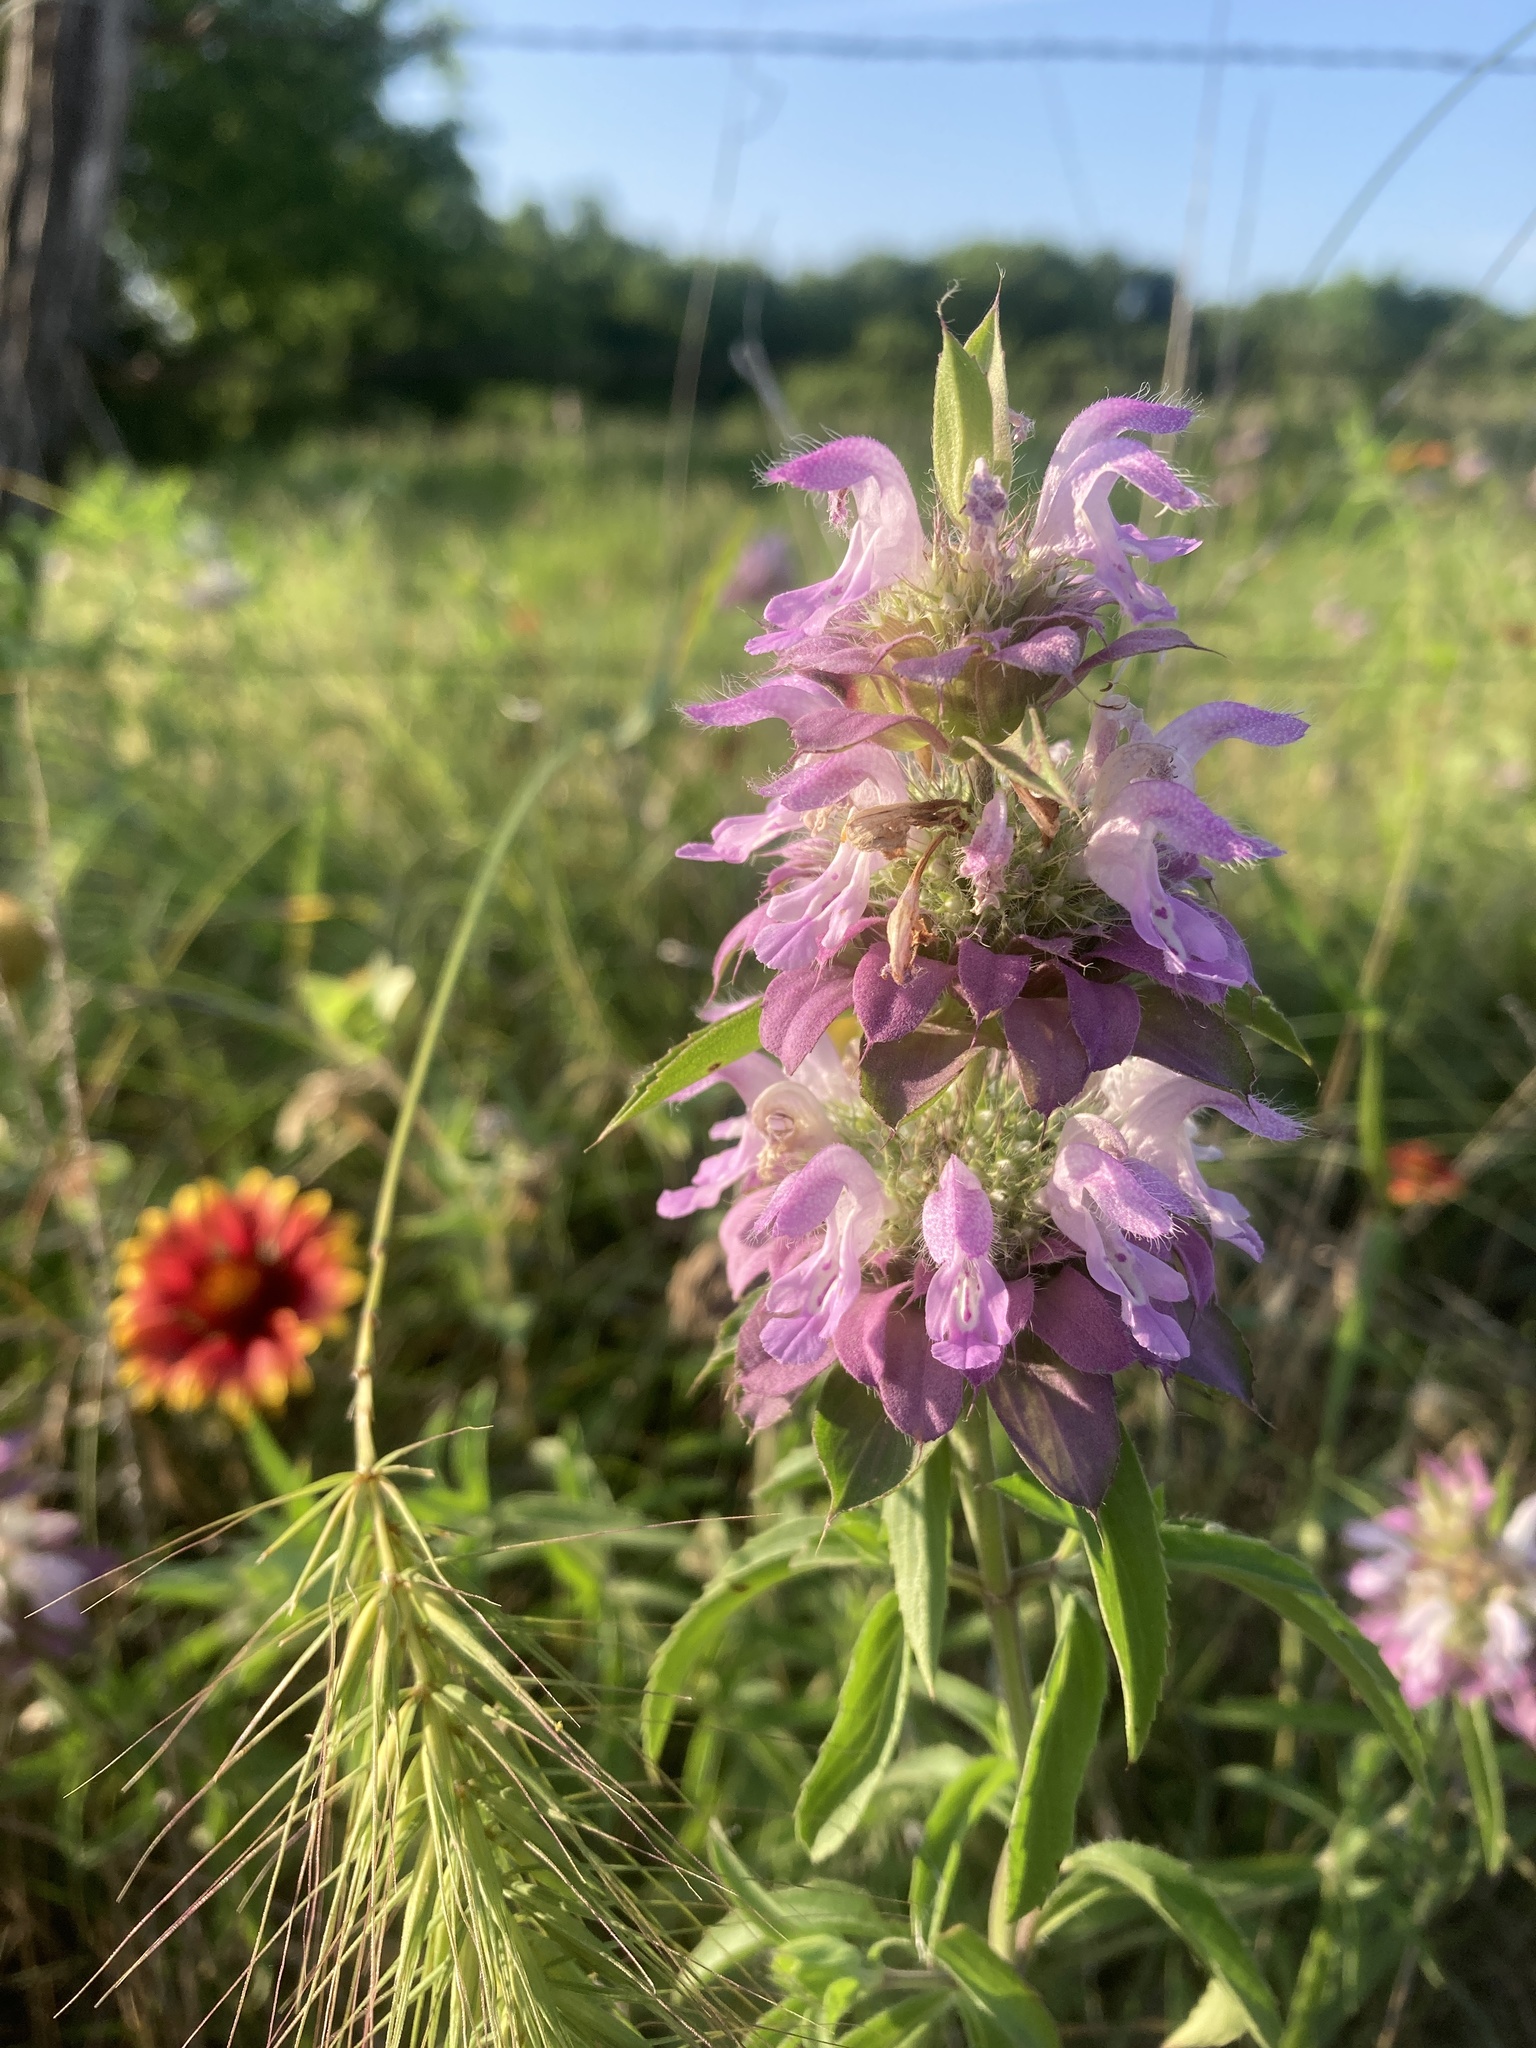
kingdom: Plantae
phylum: Tracheophyta
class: Magnoliopsida
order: Lamiales
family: Lamiaceae
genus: Monarda
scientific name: Monarda citriodora
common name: Lemon beebalm
